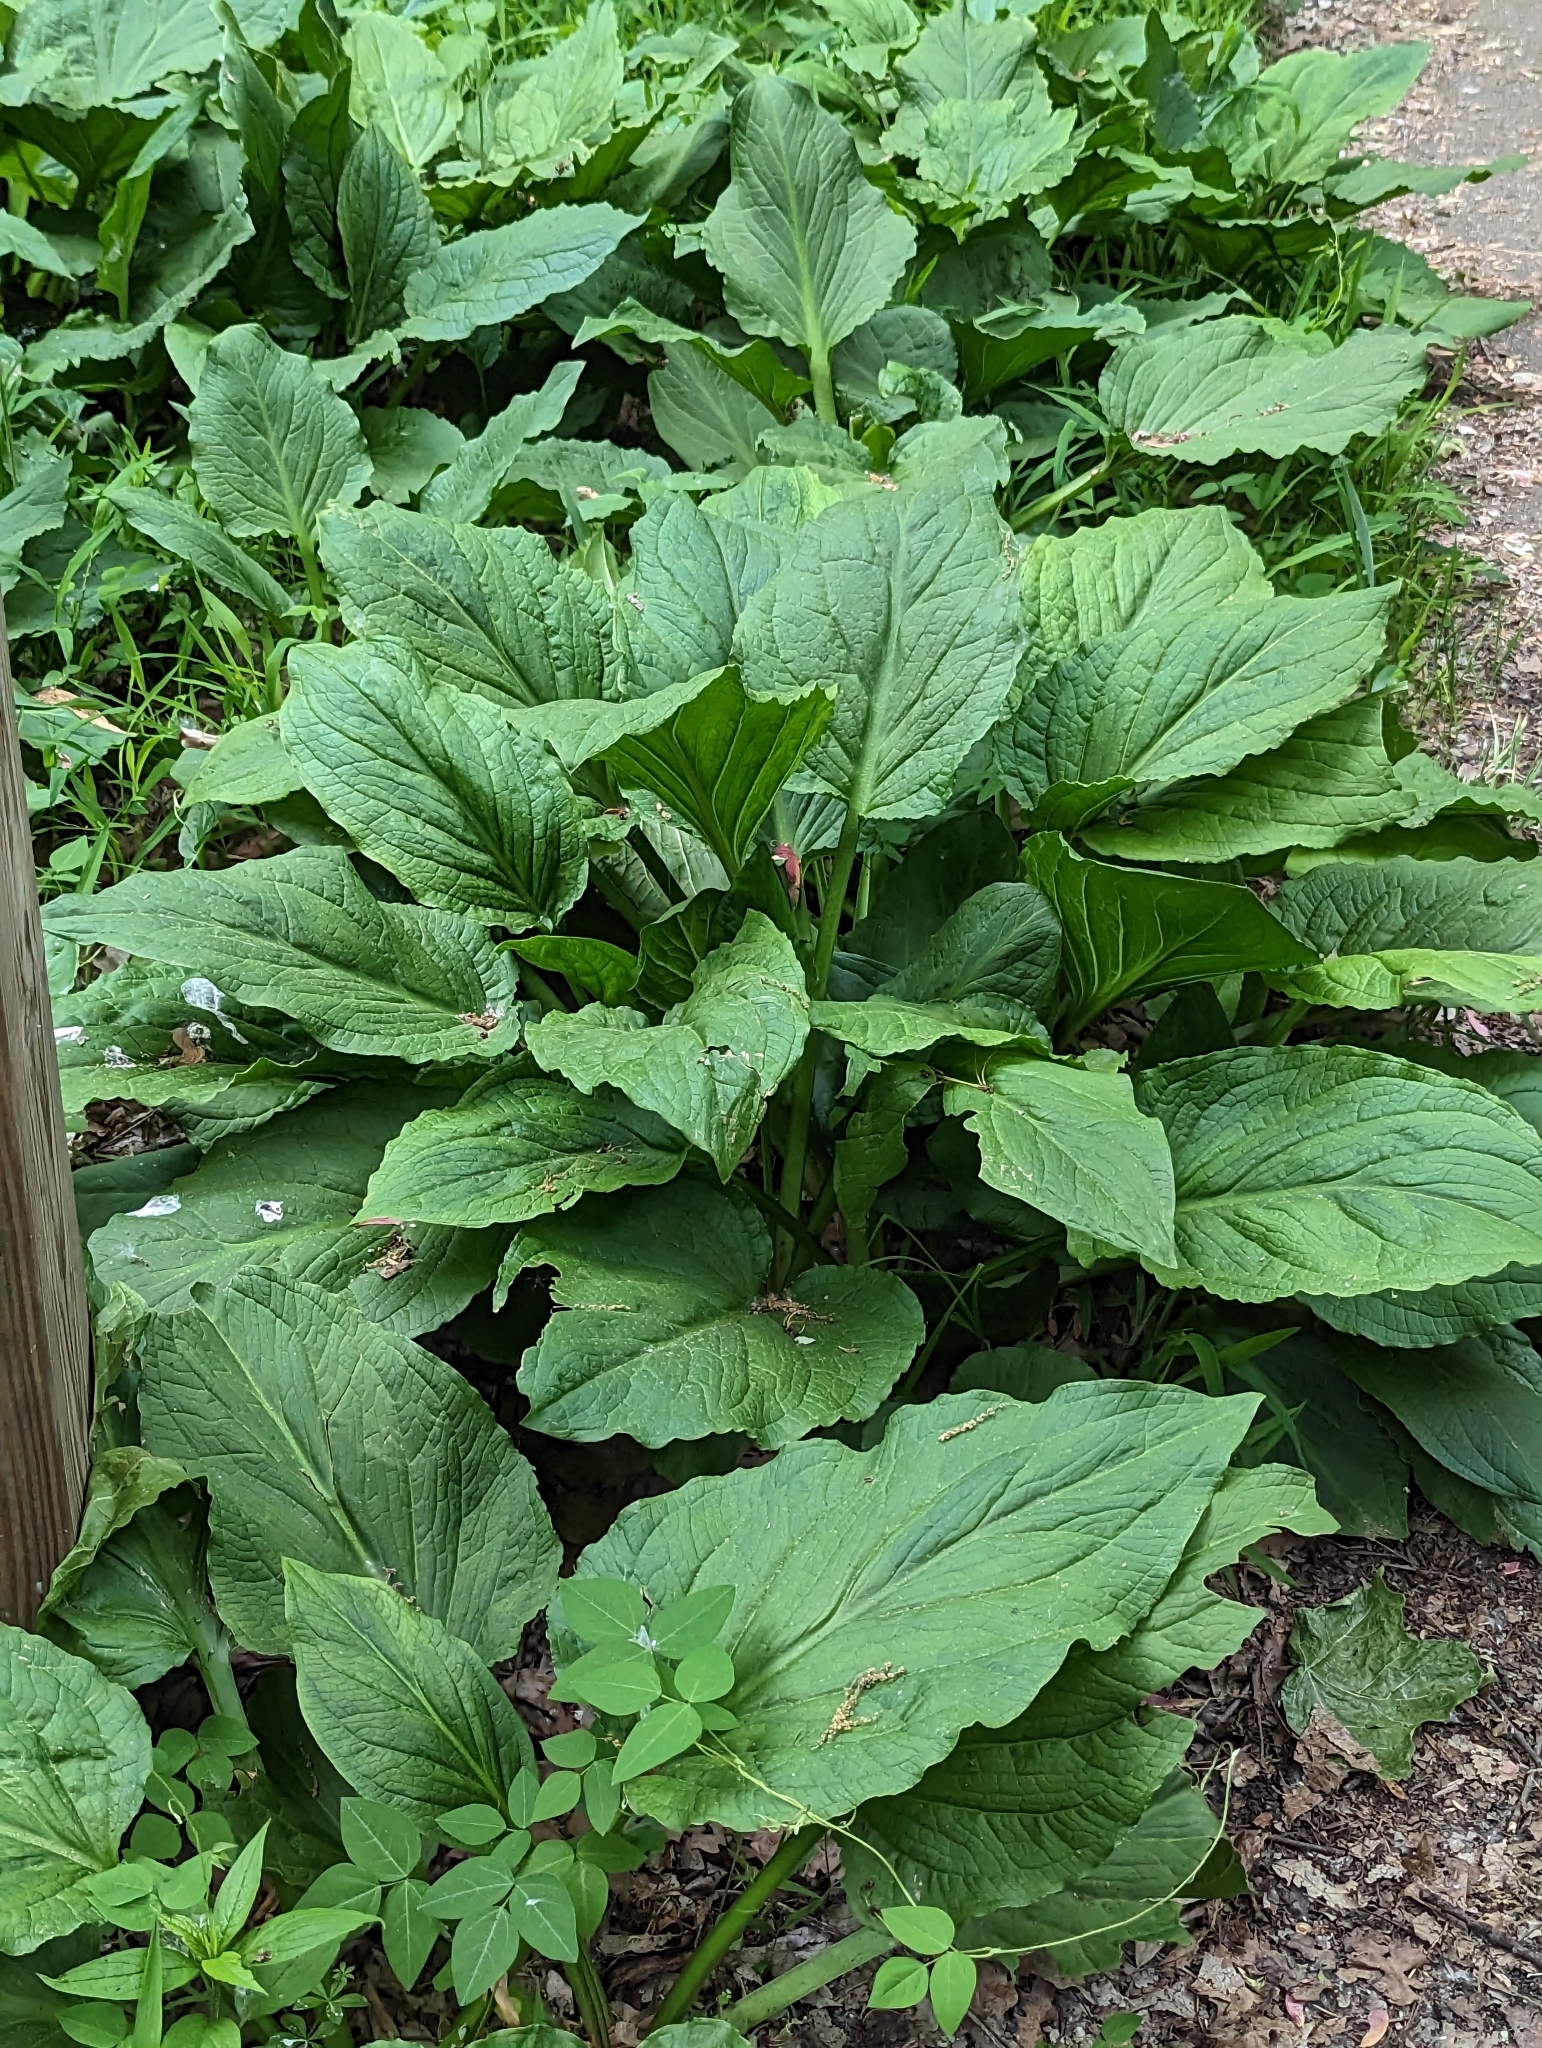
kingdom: Plantae
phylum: Tracheophyta
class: Liliopsida
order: Alismatales
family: Araceae
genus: Symplocarpus
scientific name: Symplocarpus foetidus
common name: Eastern skunk cabbage
